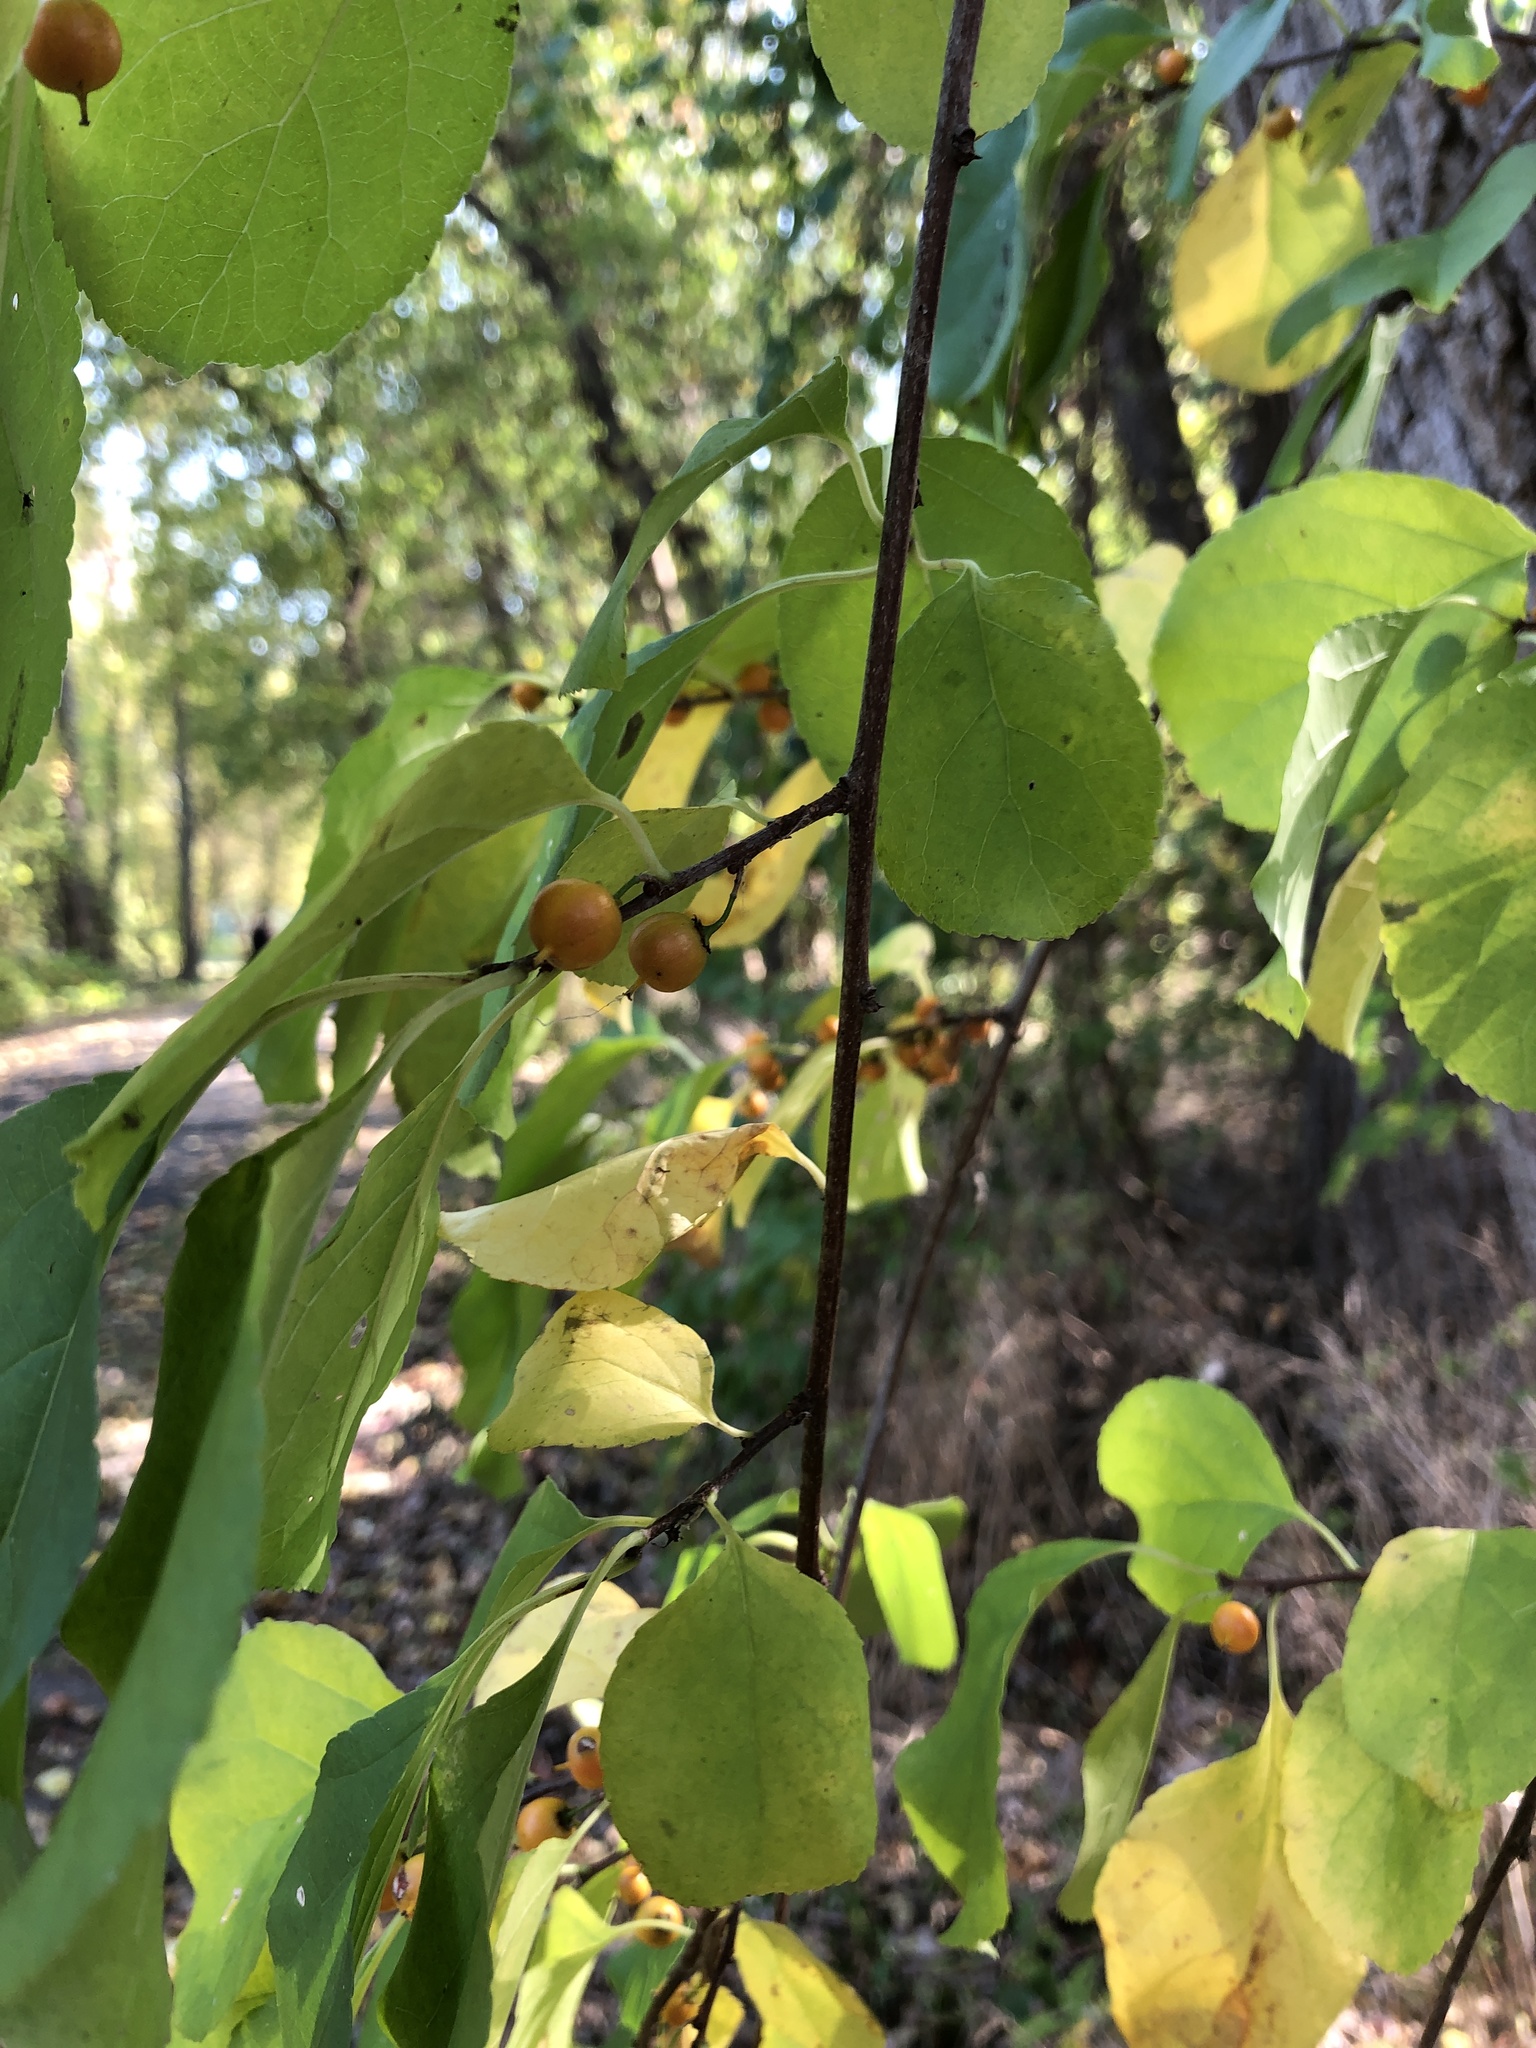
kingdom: Plantae
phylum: Tracheophyta
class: Magnoliopsida
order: Celastrales
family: Celastraceae
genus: Celastrus
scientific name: Celastrus orbiculatus
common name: Oriental bittersweet
